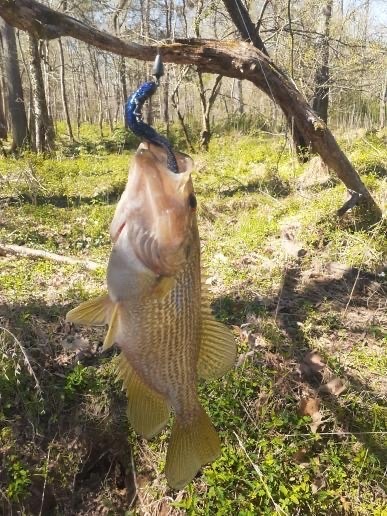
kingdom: Animalia
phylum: Chordata
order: Perciformes
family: Centrarchidae
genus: Ambloplites
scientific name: Ambloplites cavifrons
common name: Roanoke bass
